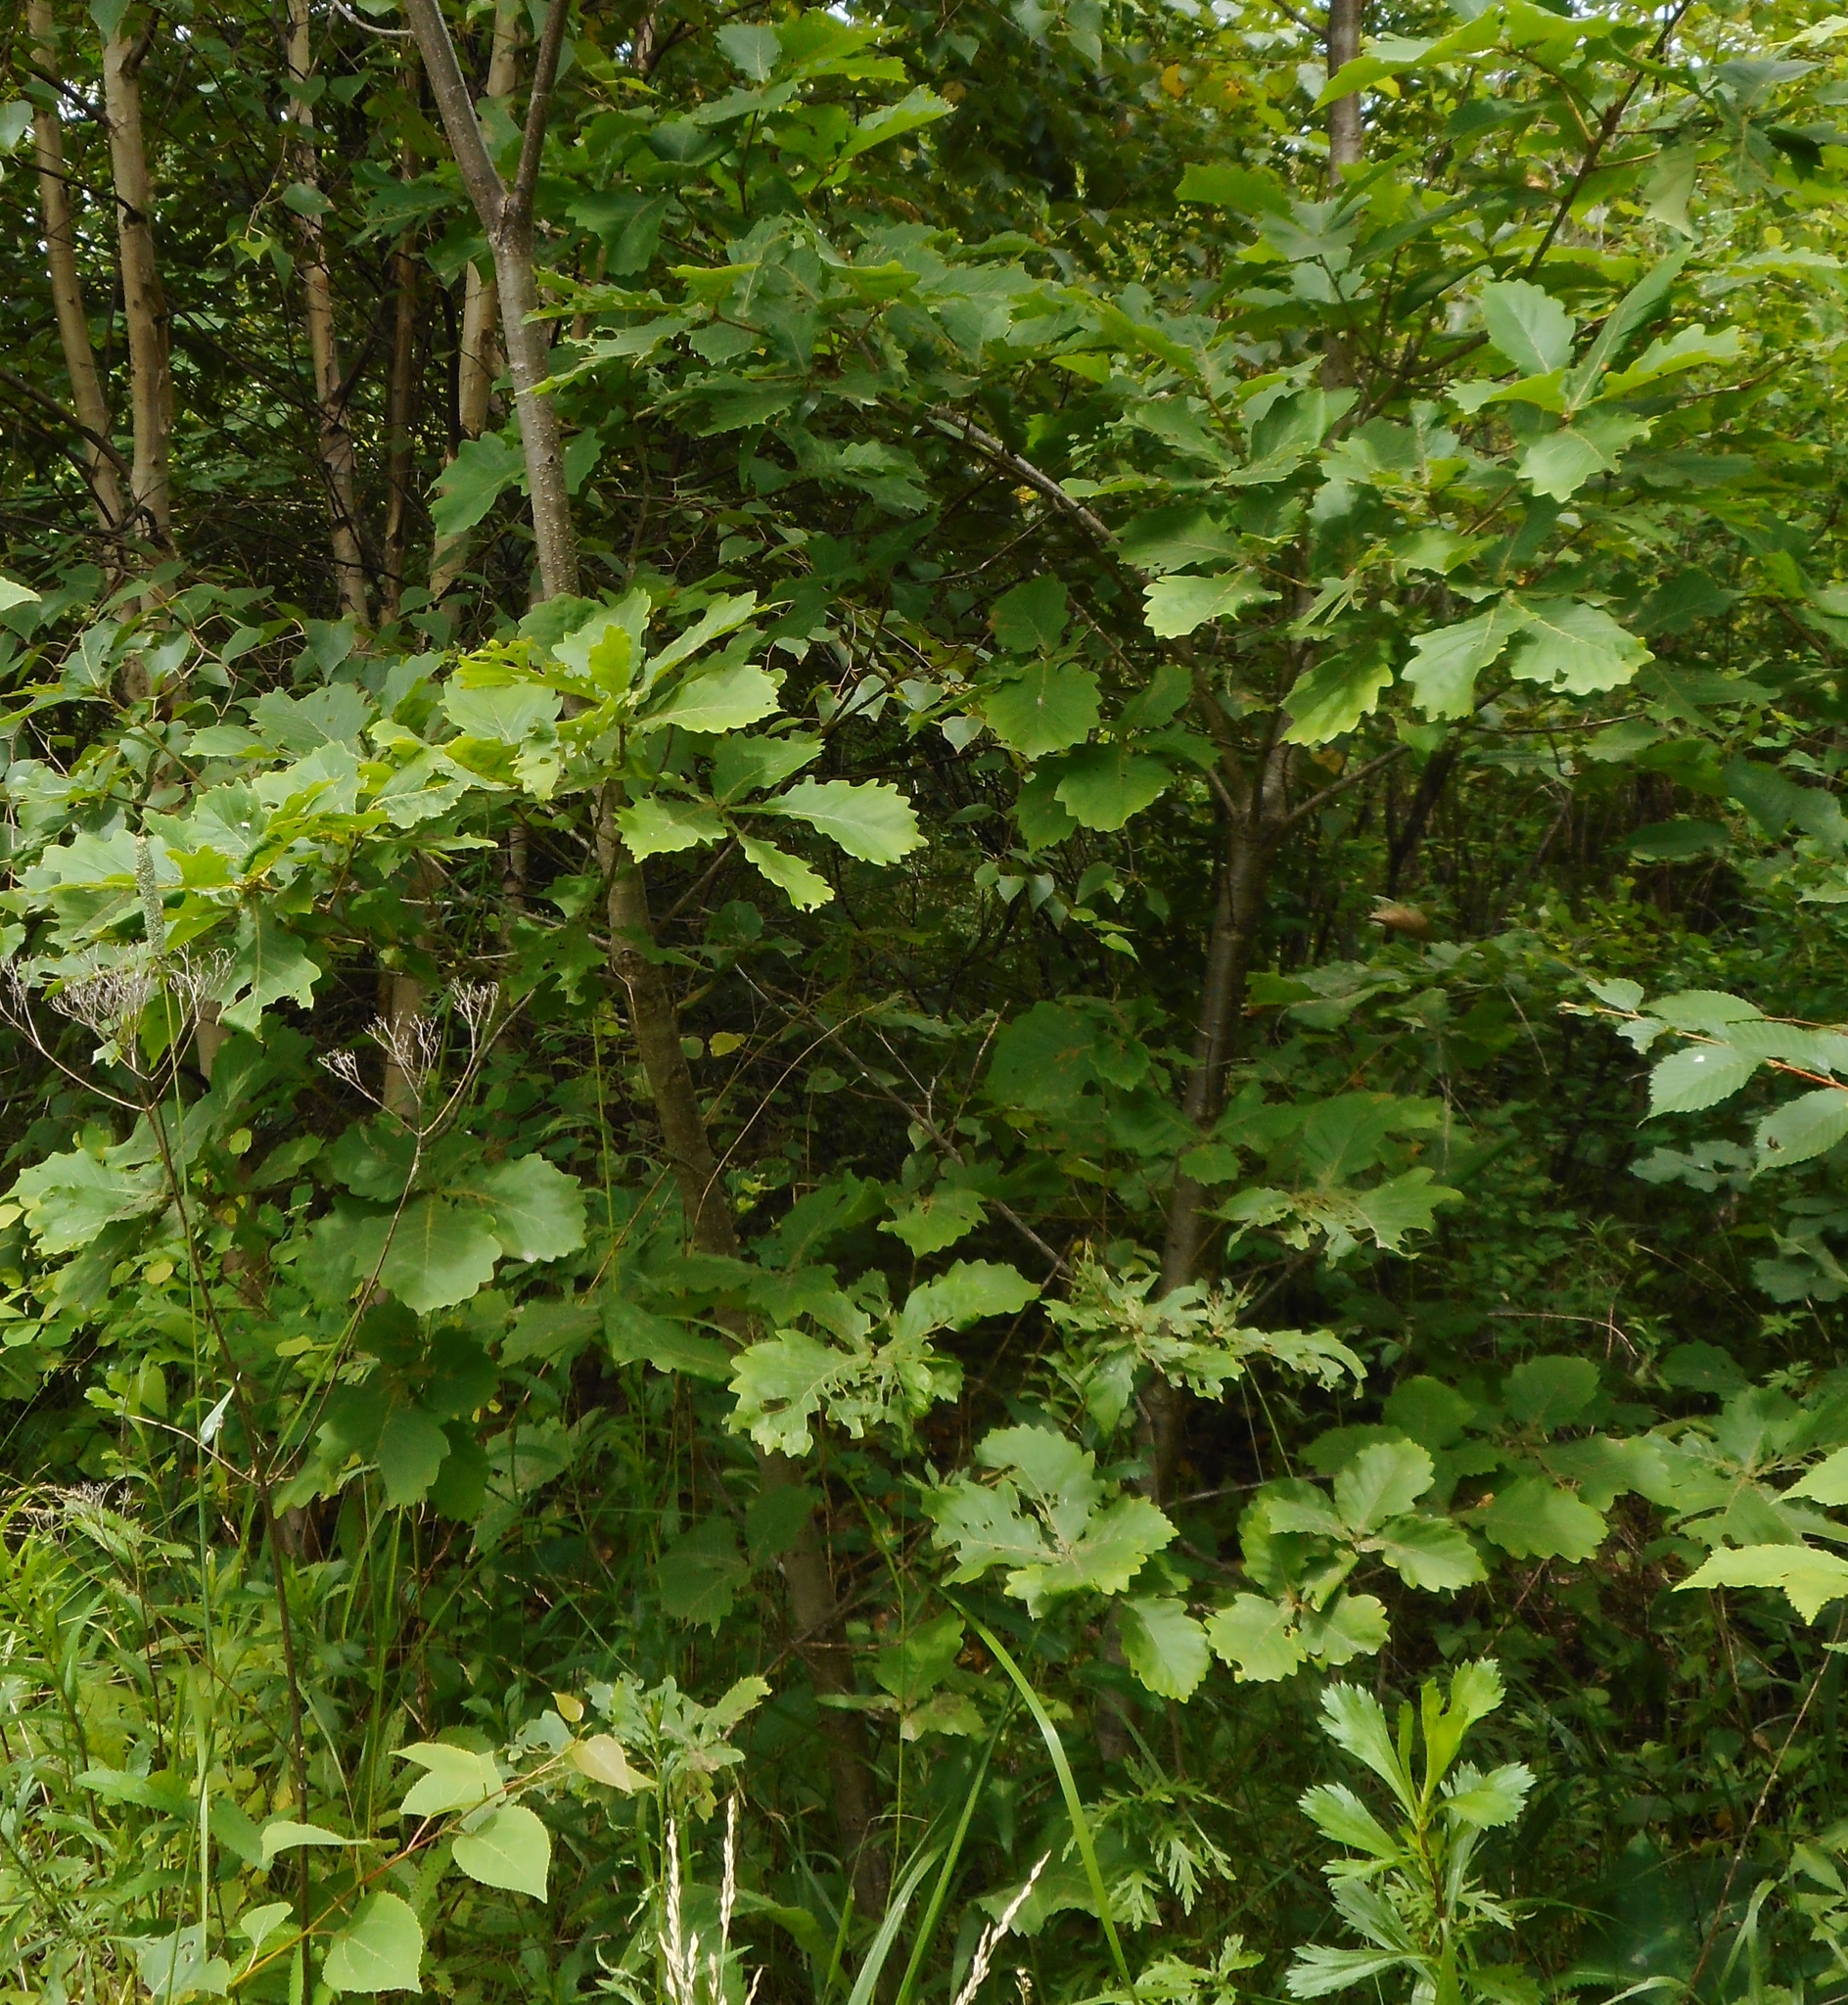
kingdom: Plantae
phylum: Tracheophyta
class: Magnoliopsida
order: Fagales
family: Fagaceae
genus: Quercus
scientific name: Quercus mongolica
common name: Mongolian oak
